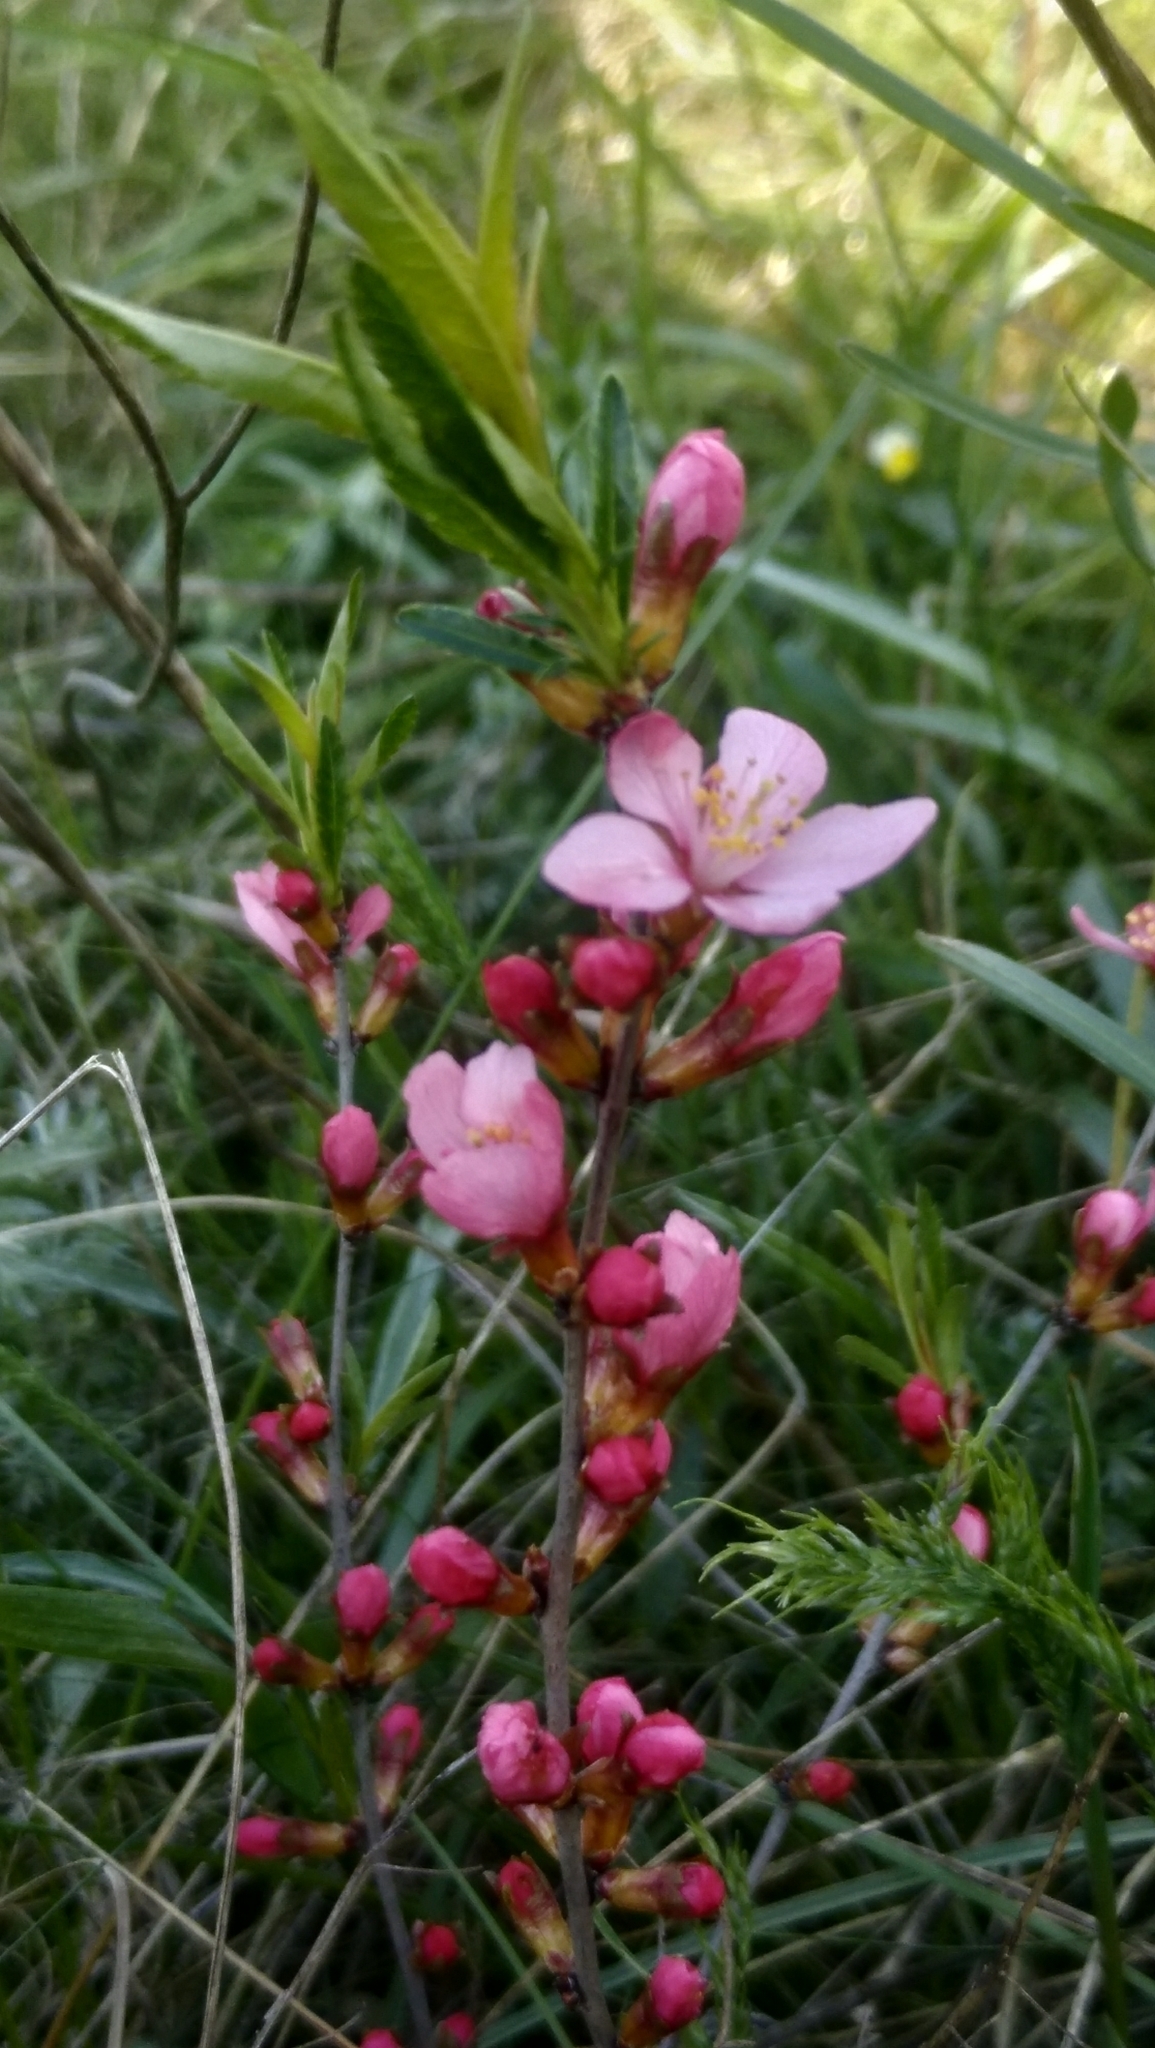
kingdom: Plantae
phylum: Tracheophyta
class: Magnoliopsida
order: Rosales
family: Rosaceae
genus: Prunus
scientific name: Prunus tenella
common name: Dwarf russian almond
